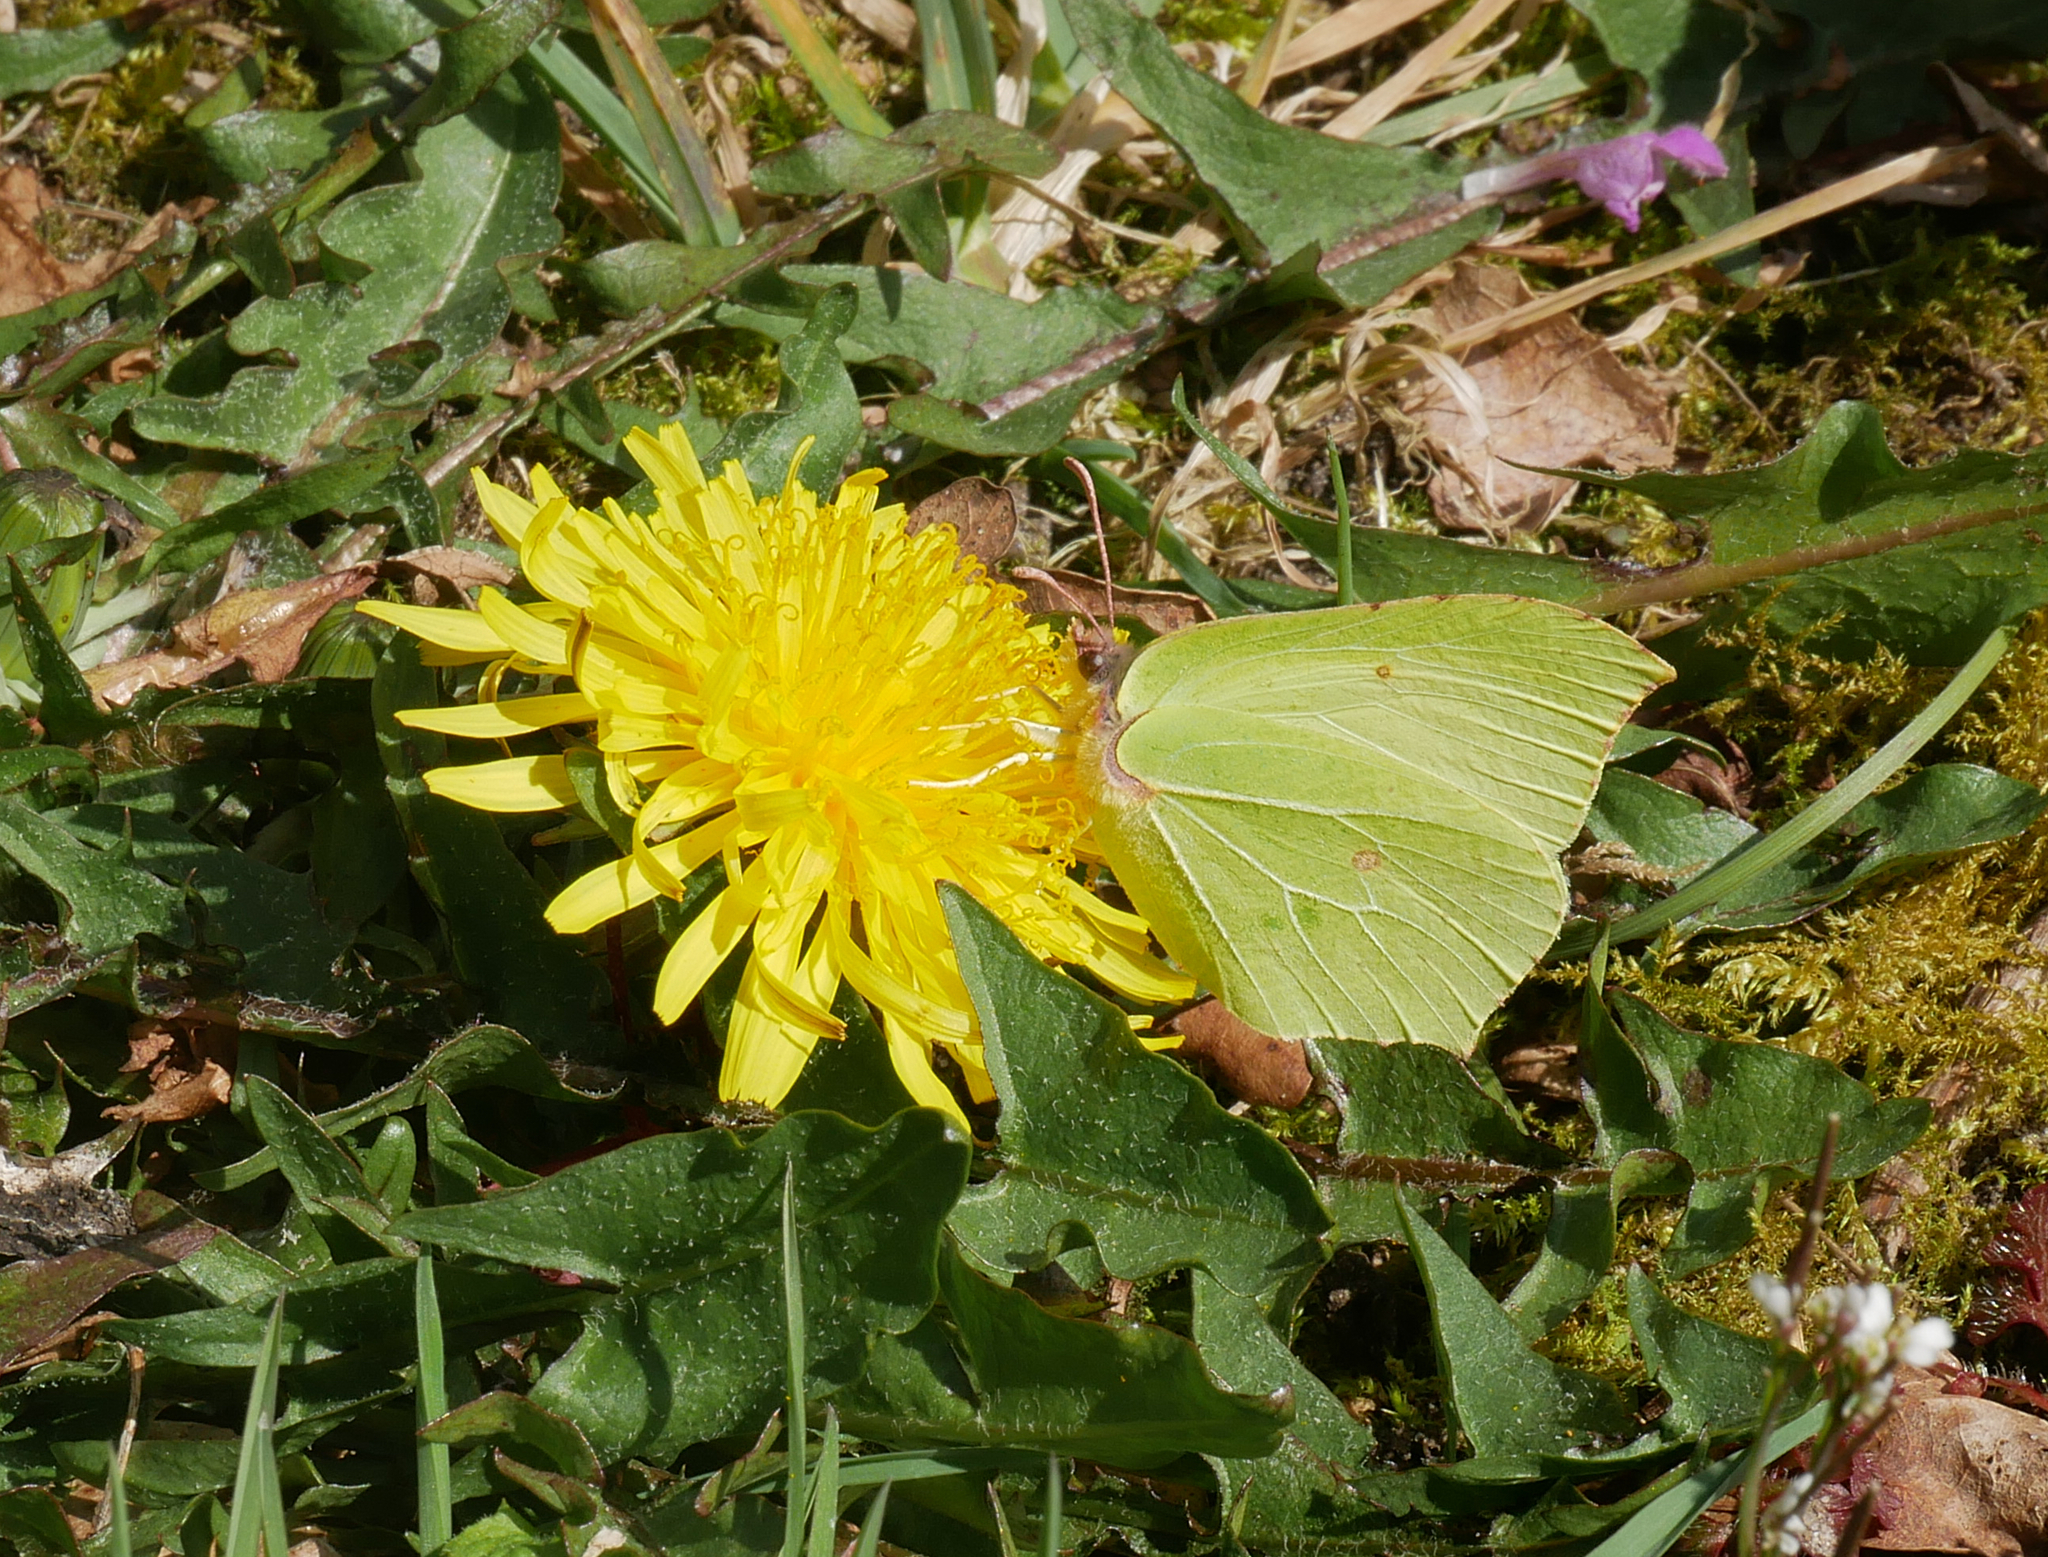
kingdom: Animalia
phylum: Arthropoda
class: Insecta
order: Lepidoptera
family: Pieridae
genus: Gonepteryx
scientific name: Gonepteryx rhamni
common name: Brimstone
